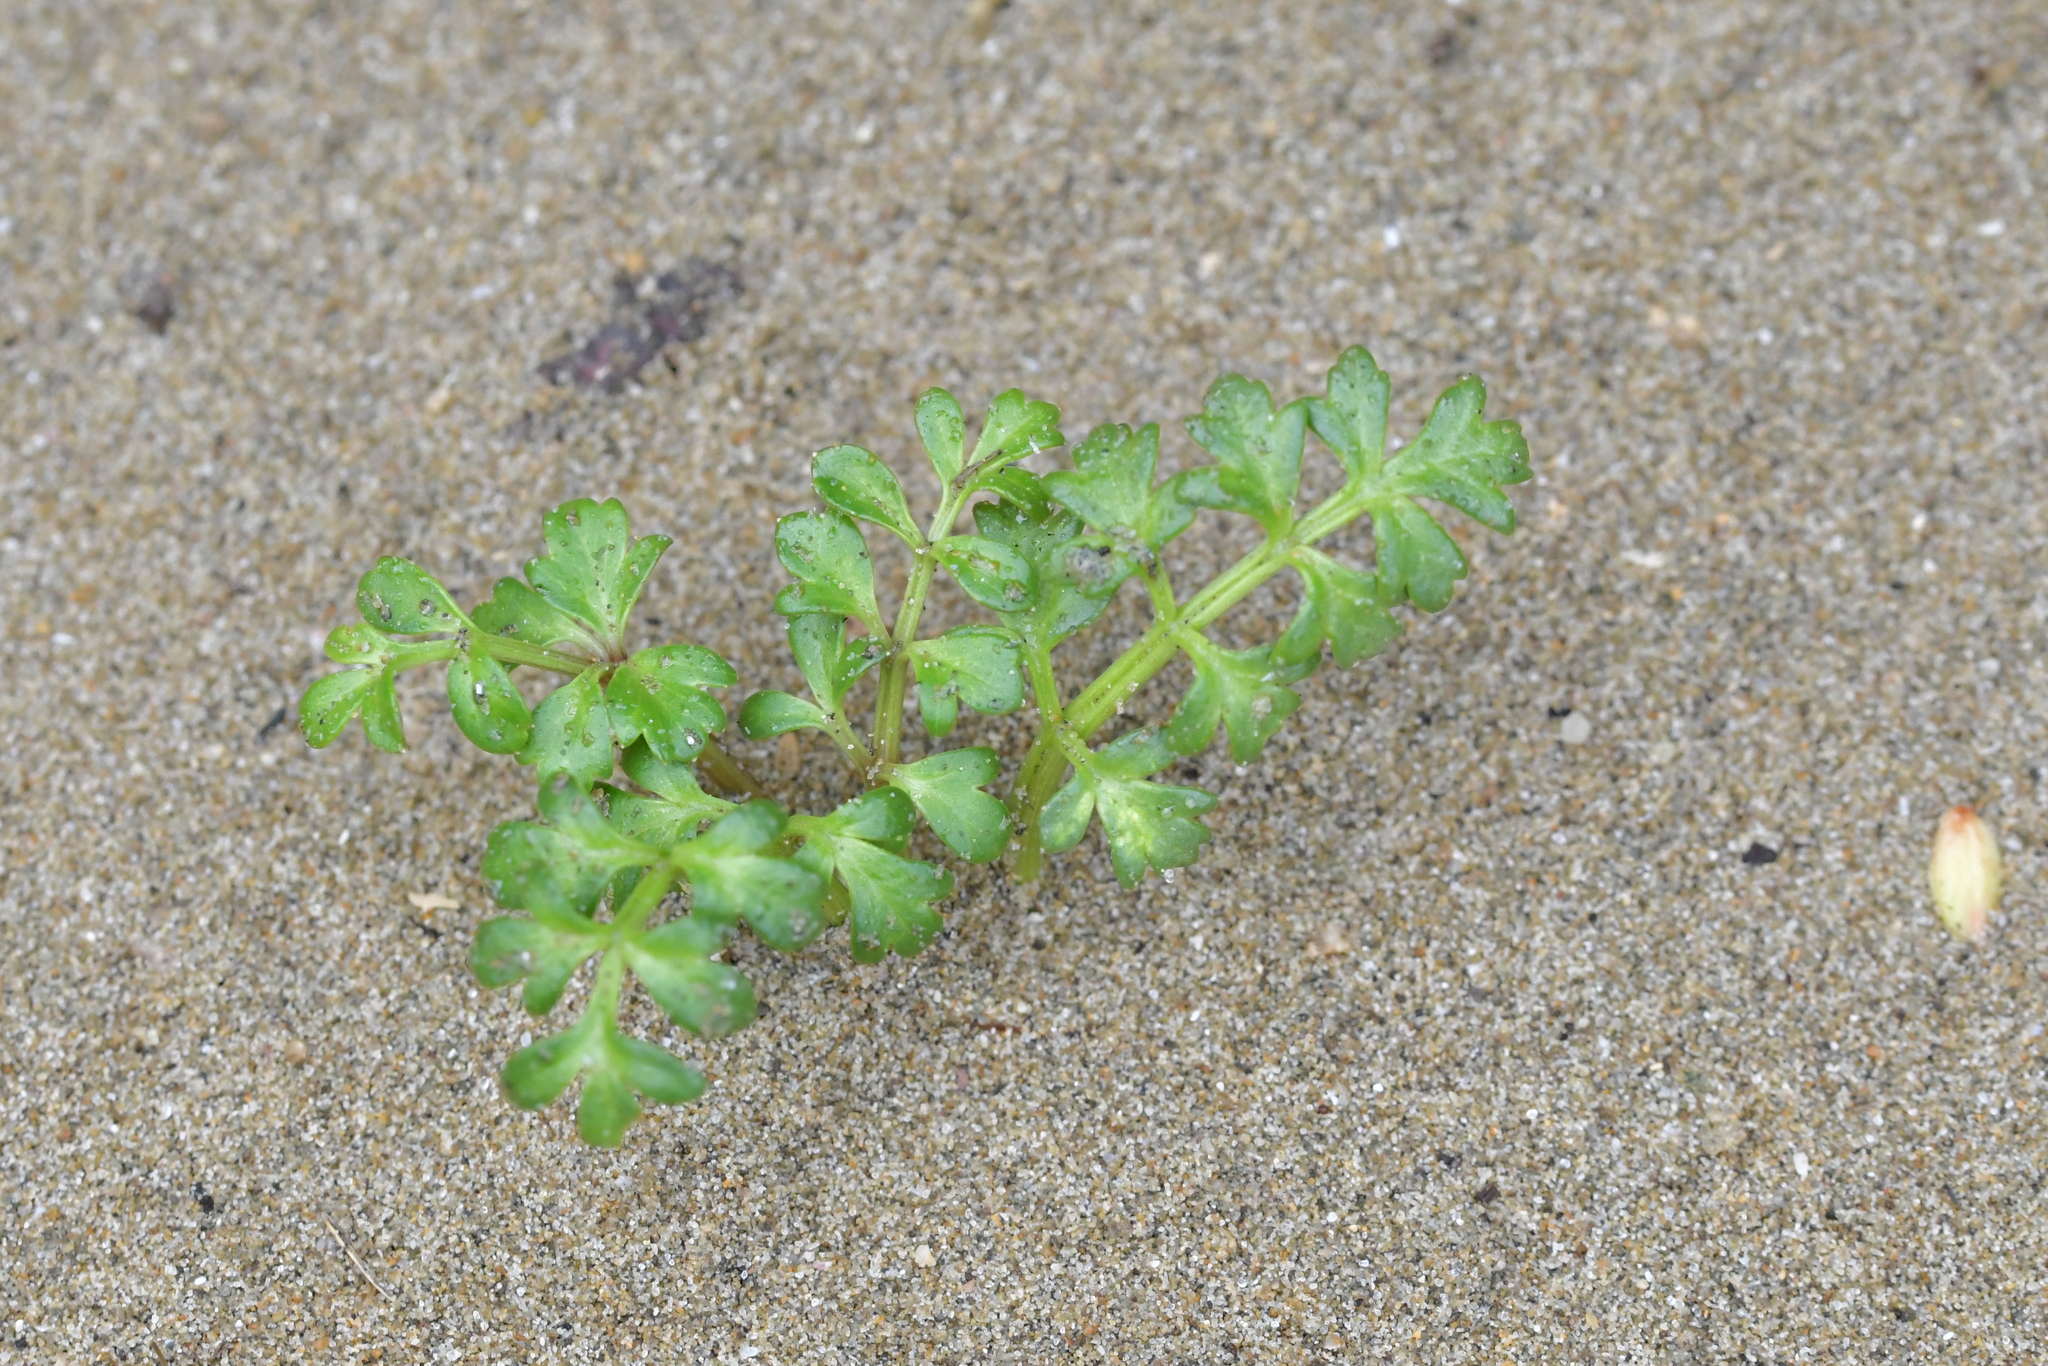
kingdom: Plantae
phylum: Tracheophyta
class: Magnoliopsida
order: Apiales
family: Apiaceae
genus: Apium
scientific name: Apium prostratum
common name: Prostrate marshwort
